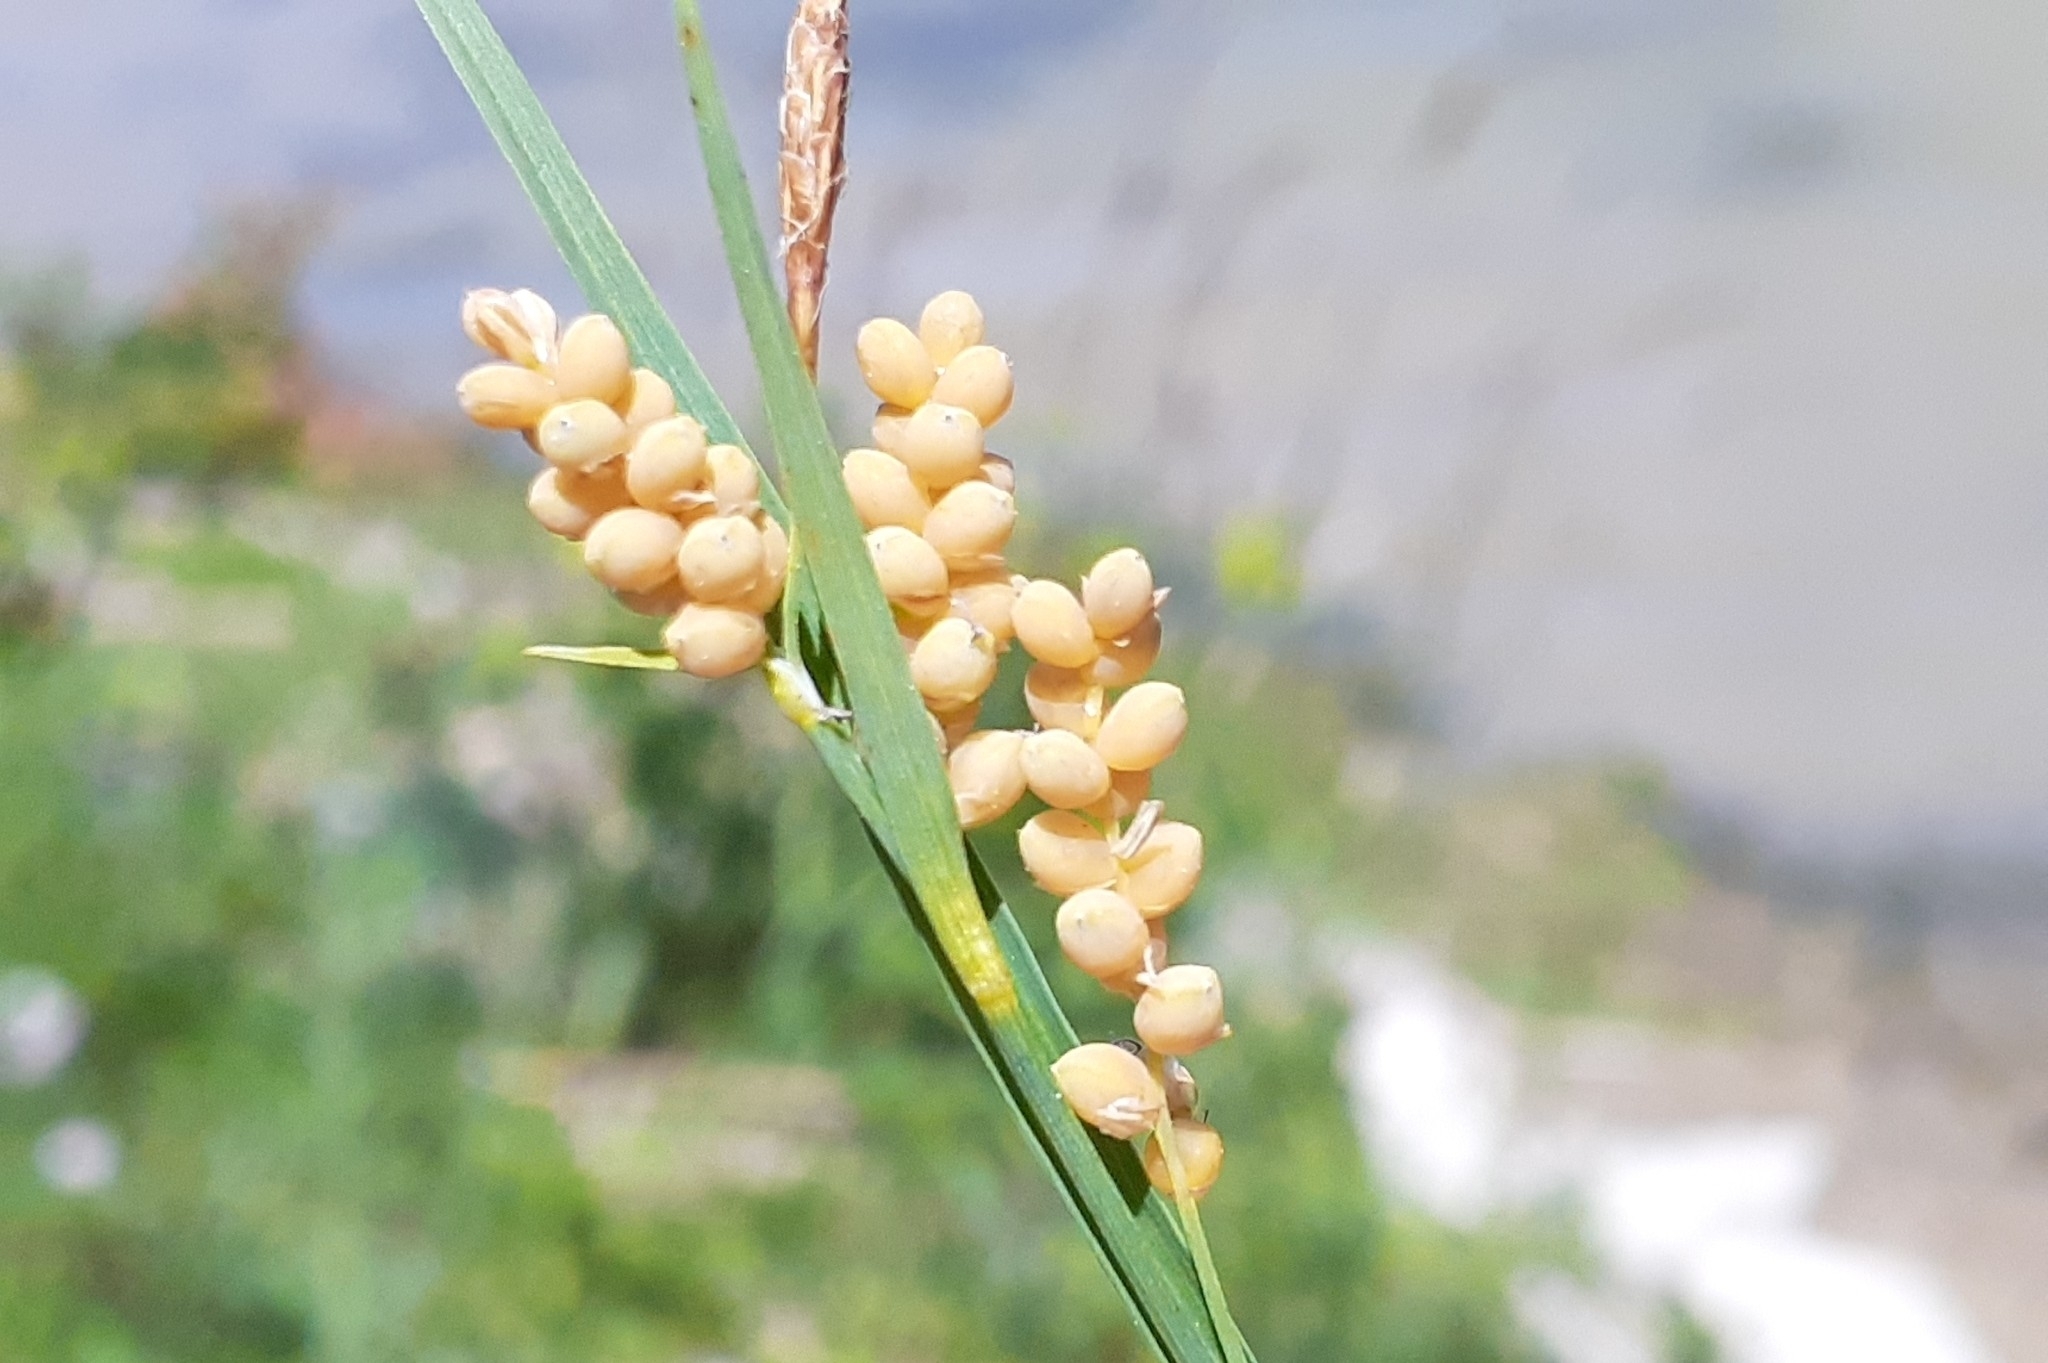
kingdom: Plantae
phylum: Tracheophyta
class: Liliopsida
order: Poales
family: Cyperaceae
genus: Carex
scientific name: Carex aurea
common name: Golden sedge
